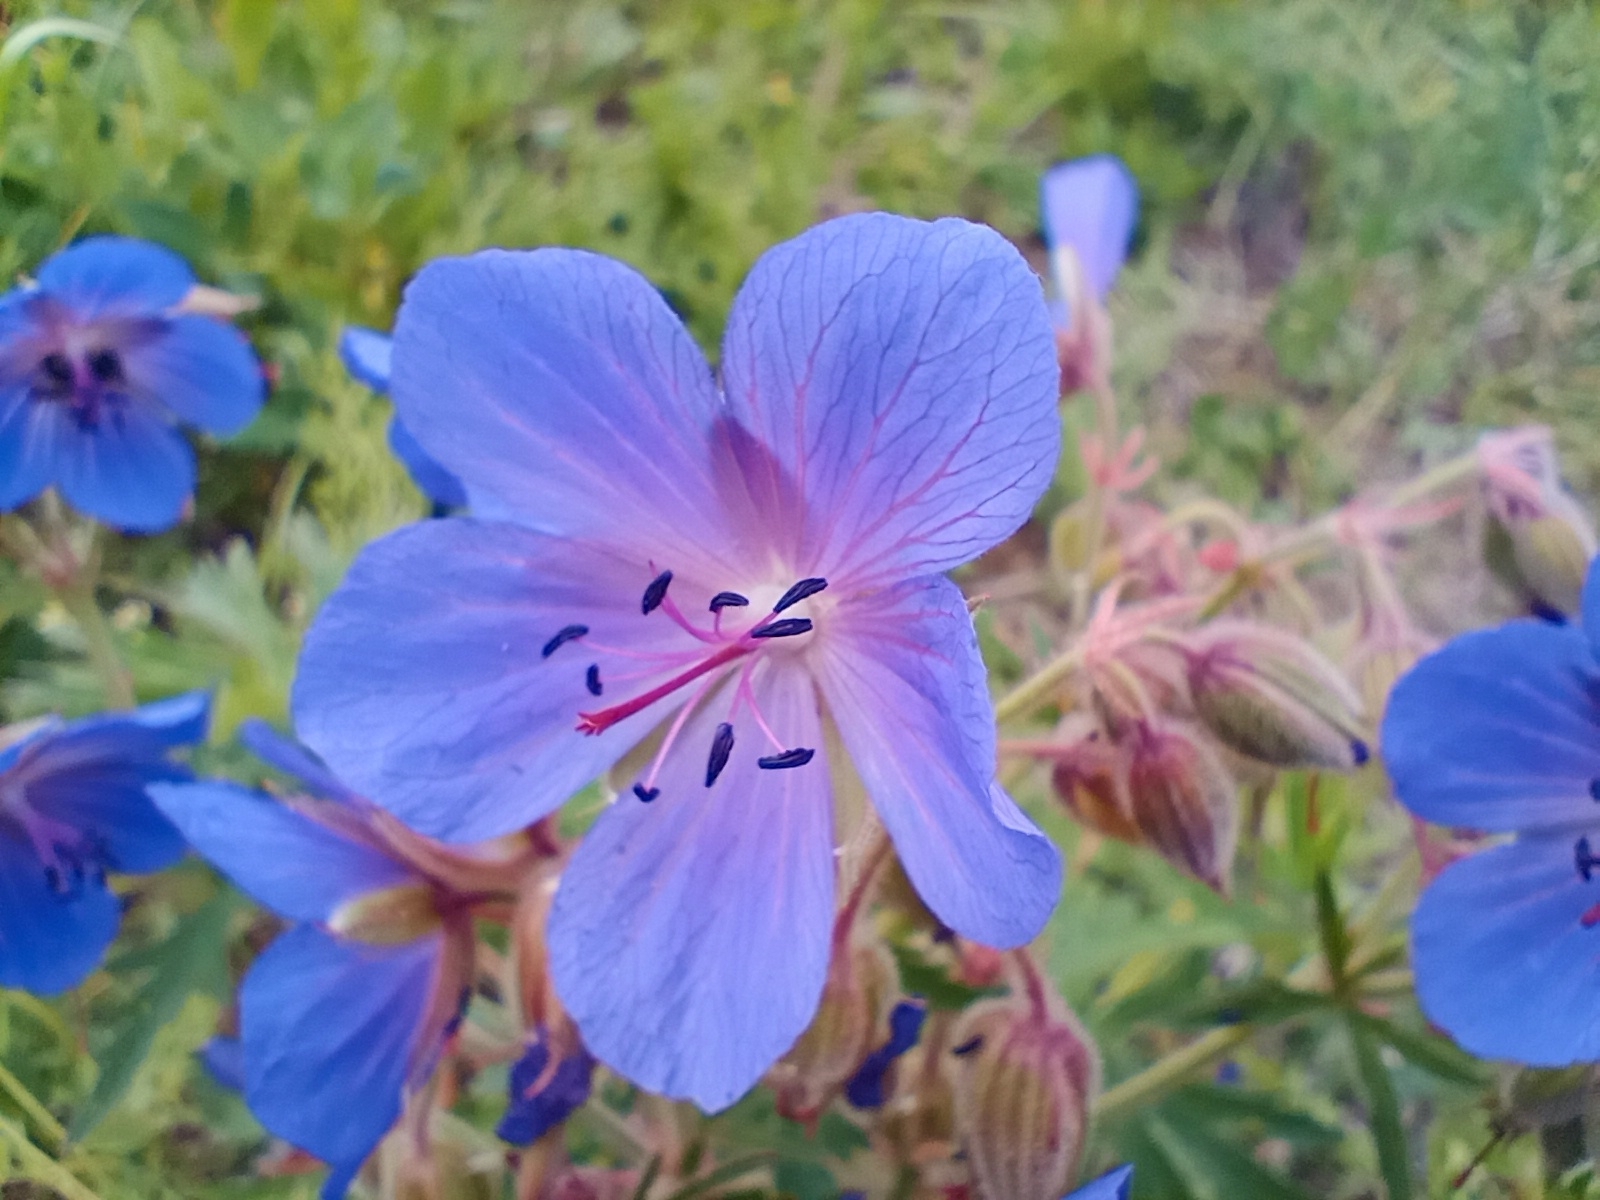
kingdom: Plantae
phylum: Tracheophyta
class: Magnoliopsida
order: Geraniales
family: Geraniaceae
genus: Geranium
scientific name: Geranium pratense
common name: Meadow crane's-bill
